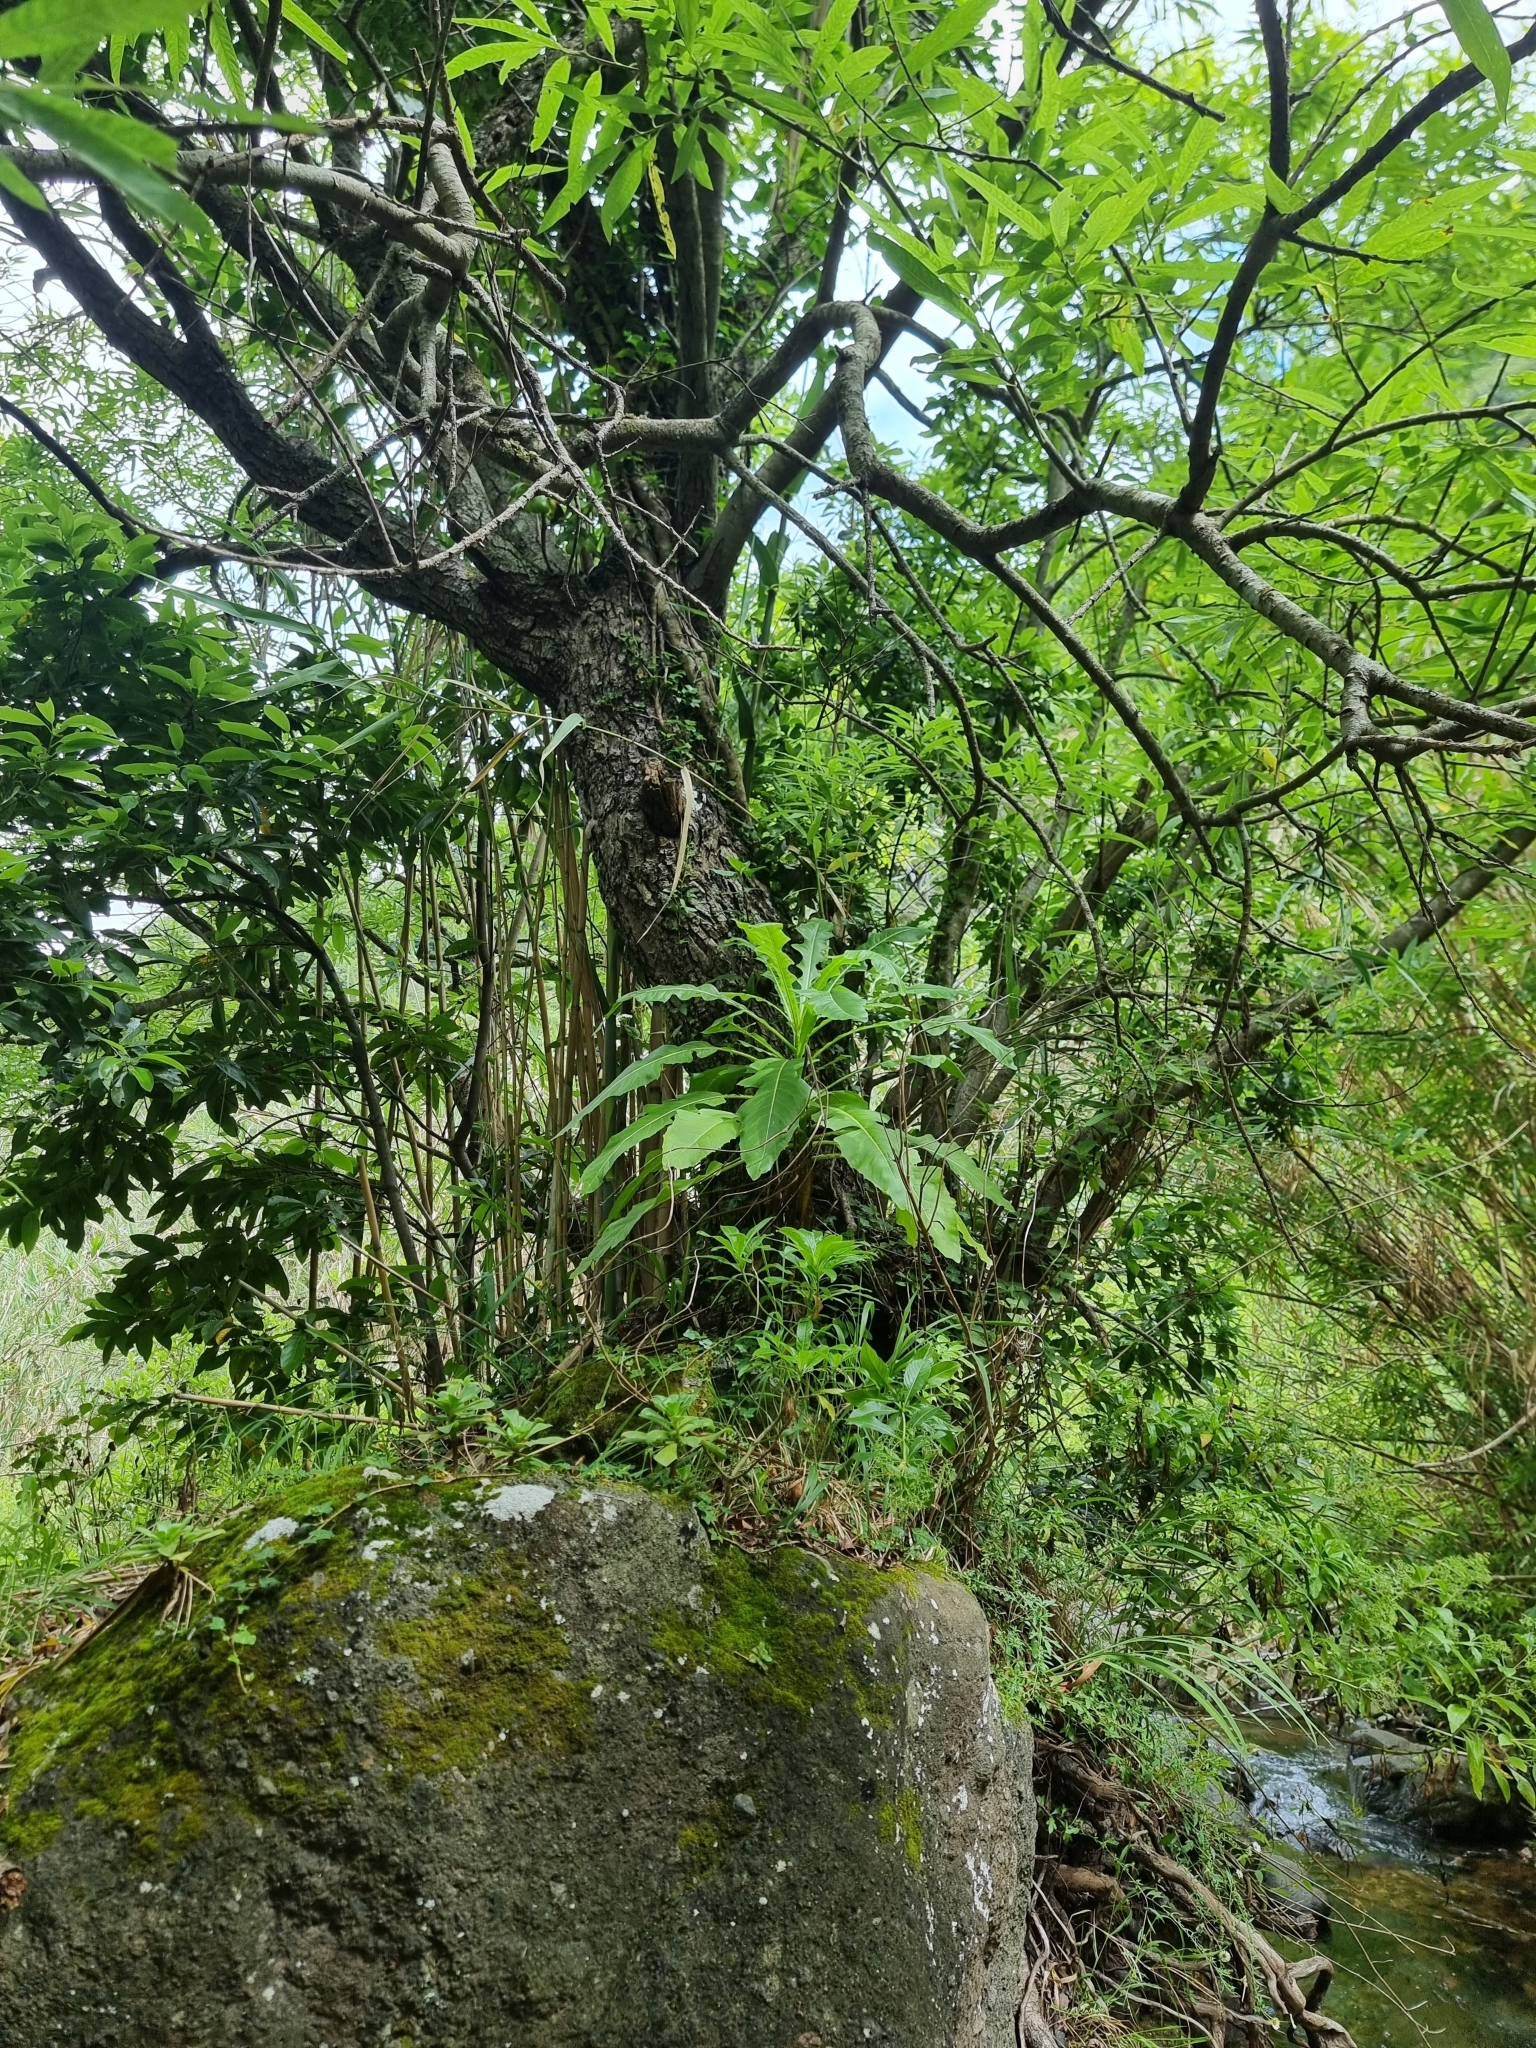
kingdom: Plantae
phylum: Tracheophyta
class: Magnoliopsida
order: Asterales
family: Asteraceae
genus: Sonchus
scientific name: Sonchus fruticosus
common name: Shrubby sow-thistle
